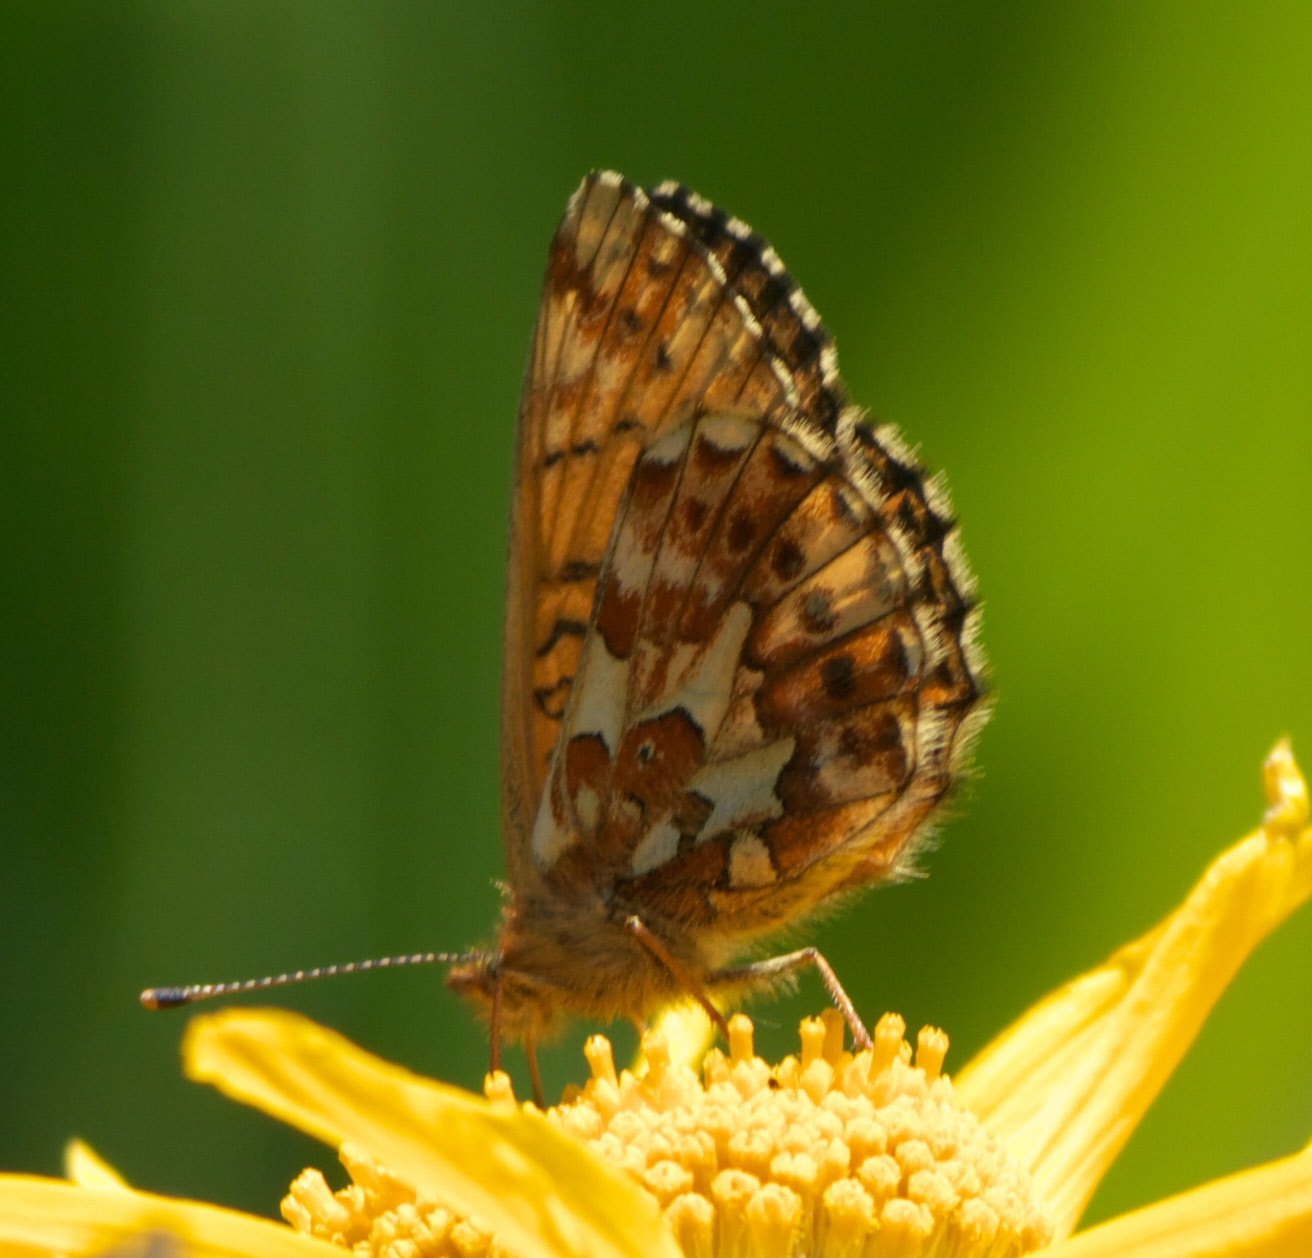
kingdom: Animalia
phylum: Arthropoda
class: Insecta
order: Lepidoptera
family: Nymphalidae
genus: Clossiana
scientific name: Clossiana helena
